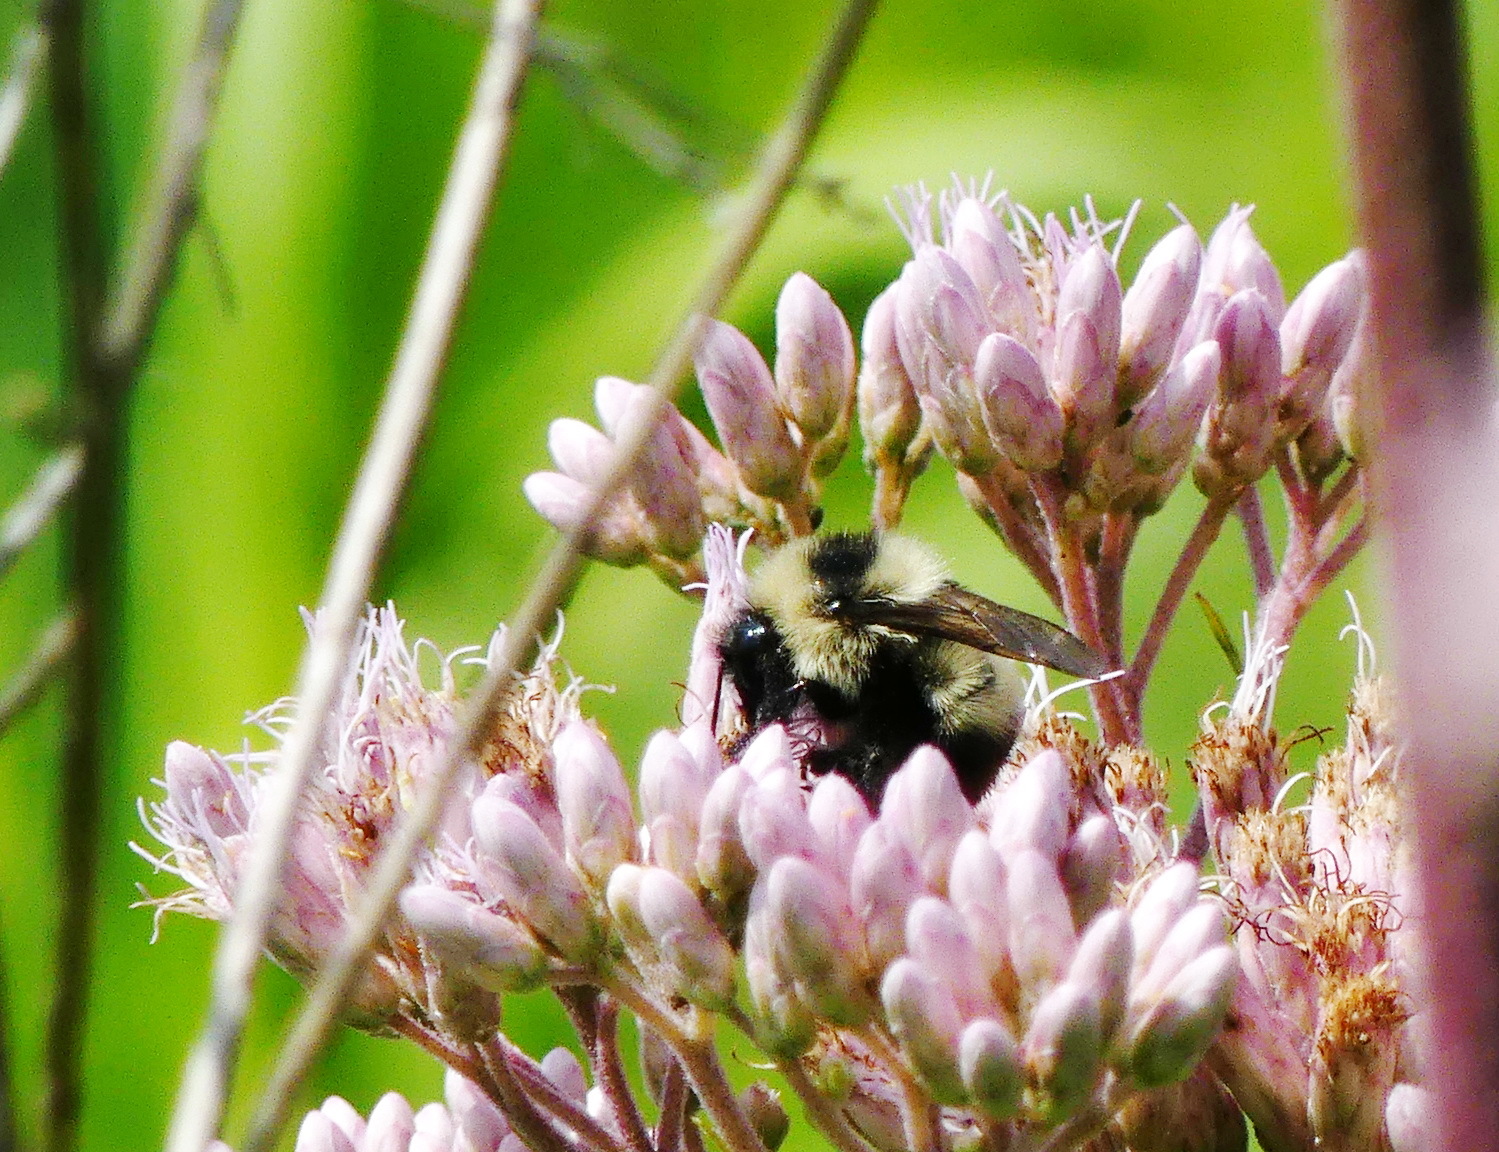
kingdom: Animalia
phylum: Arthropoda
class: Insecta
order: Hymenoptera
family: Apidae
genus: Bombus
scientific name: Bombus rufocinctus
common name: Red-belted bumble bee
